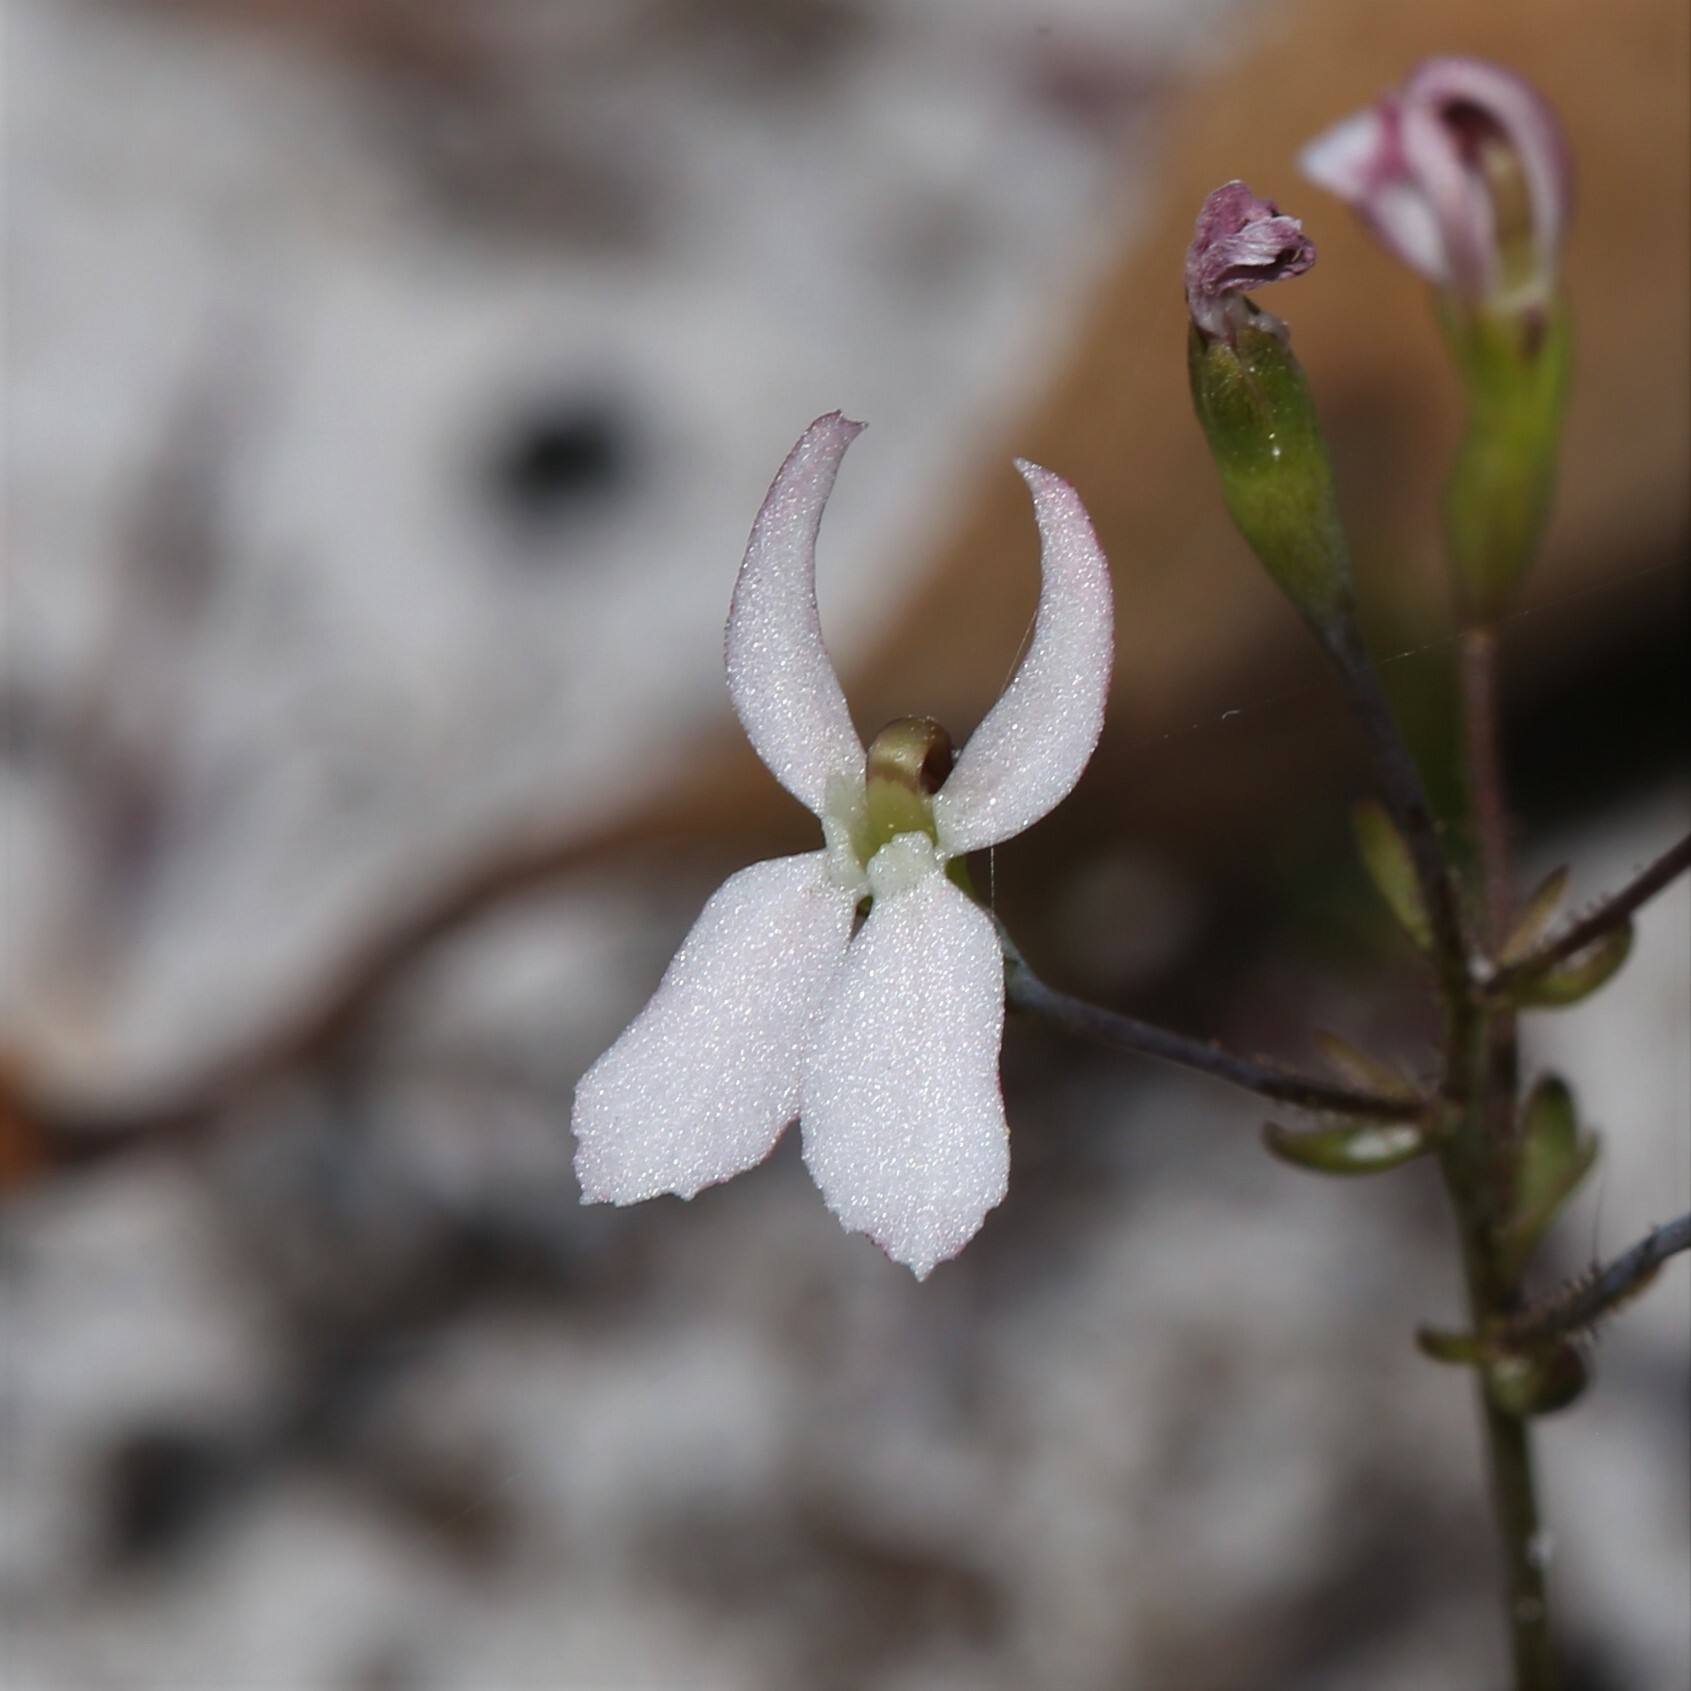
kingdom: Plantae
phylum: Tracheophyta
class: Magnoliopsida
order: Asterales
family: Stylidiaceae
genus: Stylidium
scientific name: Stylidium petiolare
